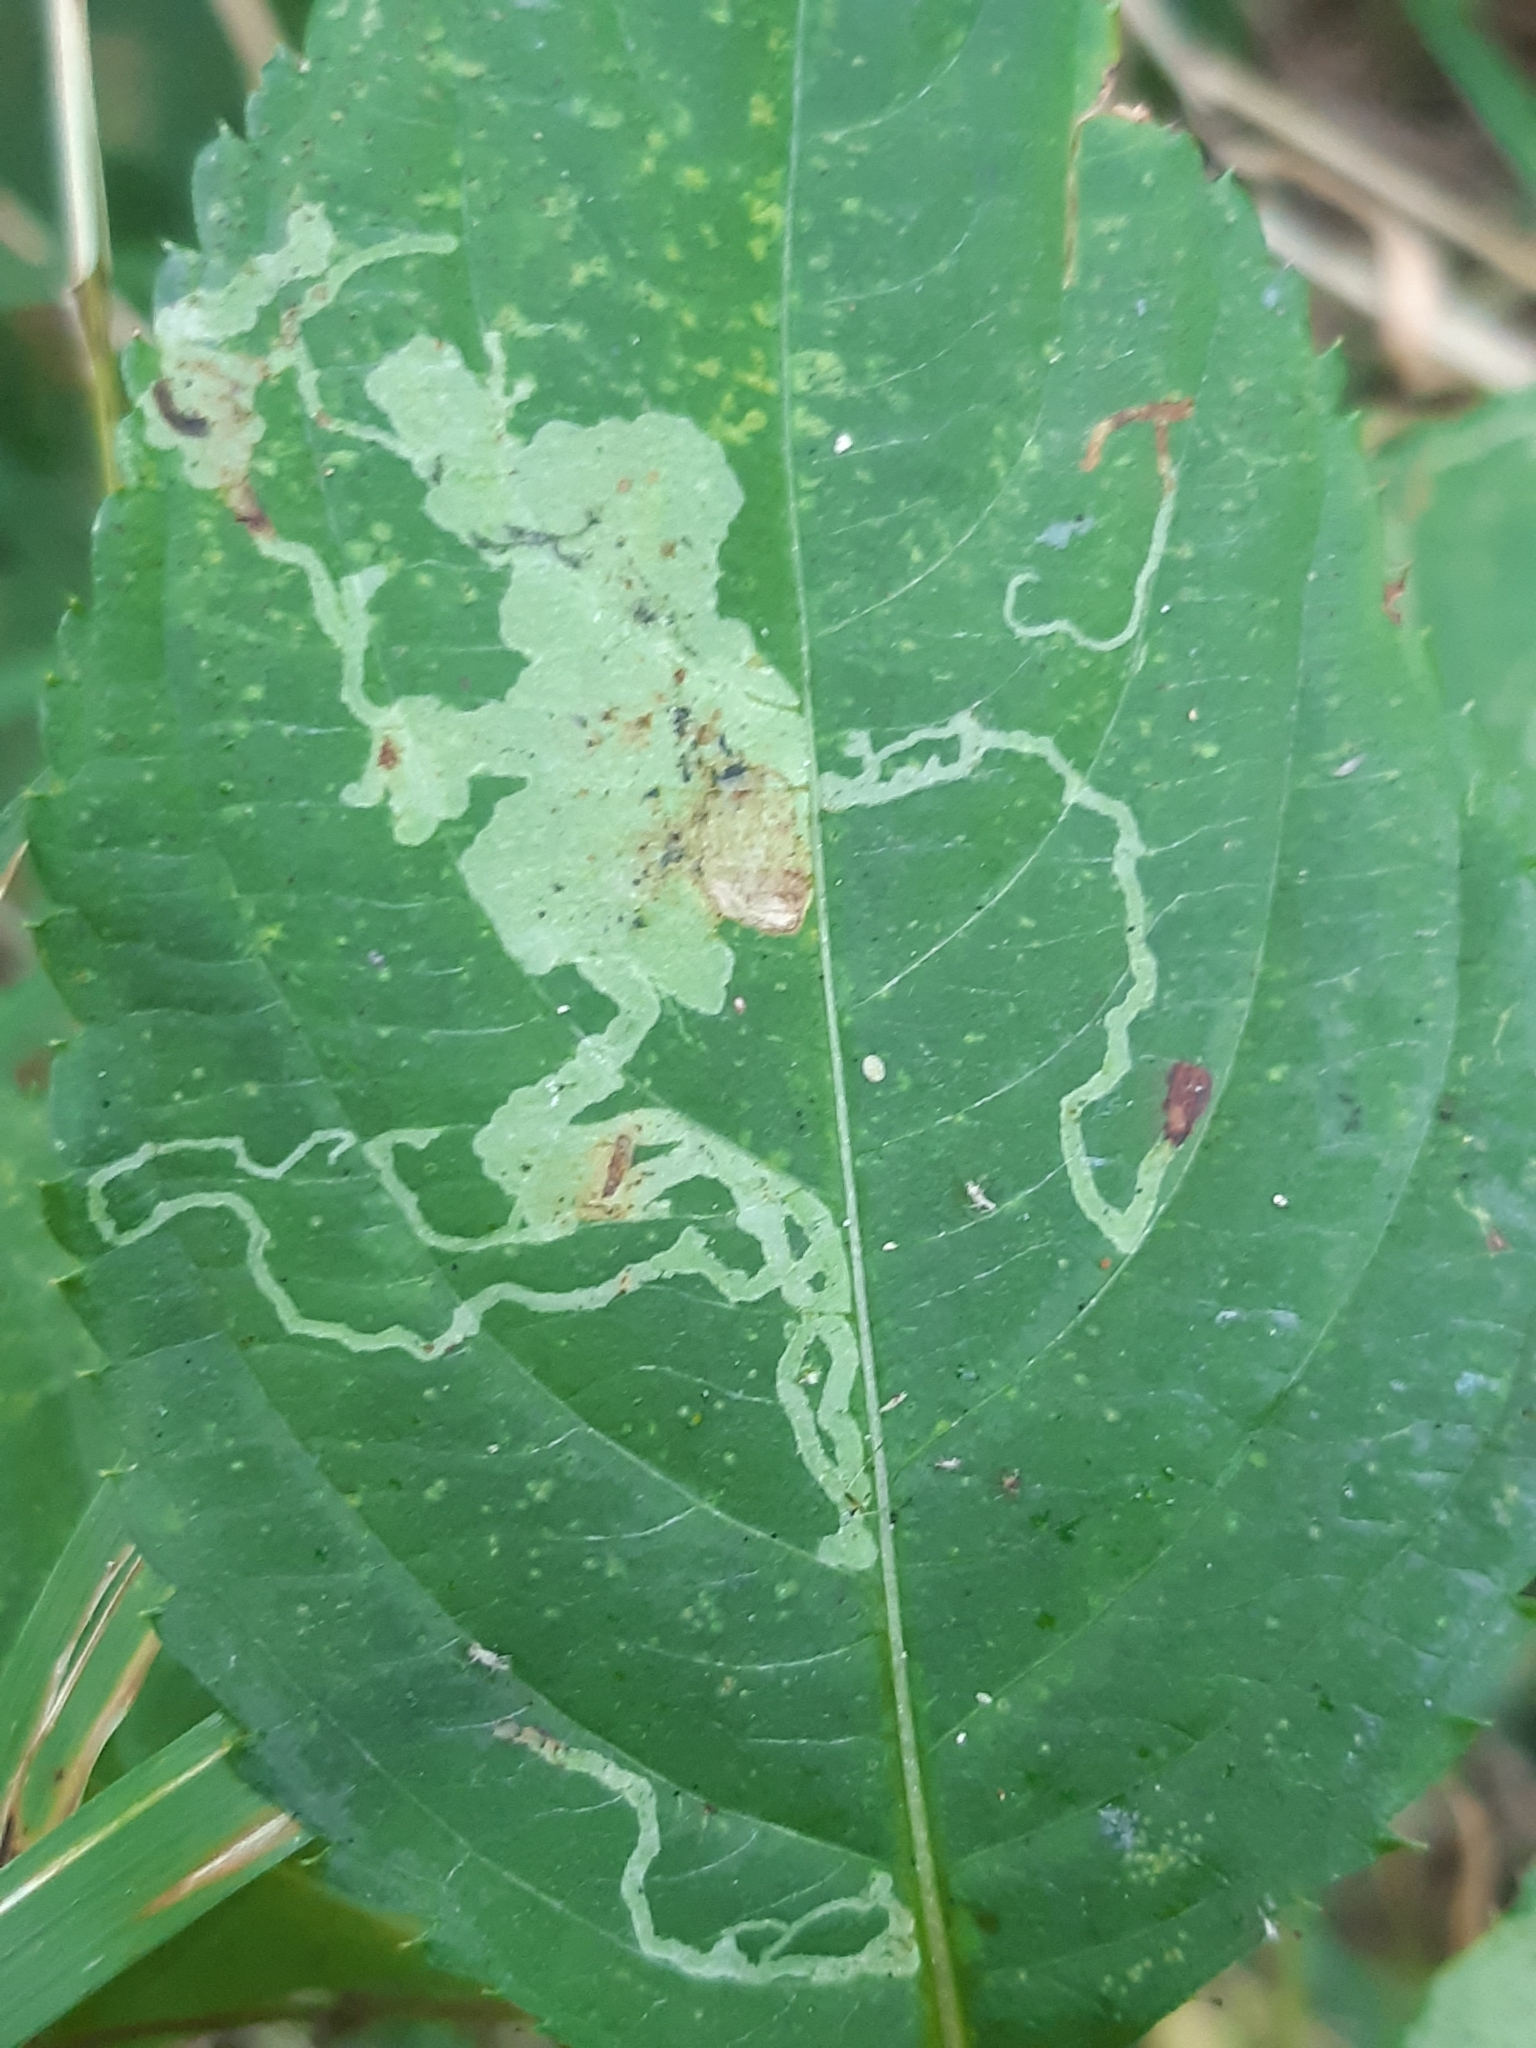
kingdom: Animalia
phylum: Arthropoda
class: Insecta
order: Diptera
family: Agromyzidae
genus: Phytoliriomyza
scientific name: Phytoliriomyza melampyga
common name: Jewelweed leaf-miner fly
